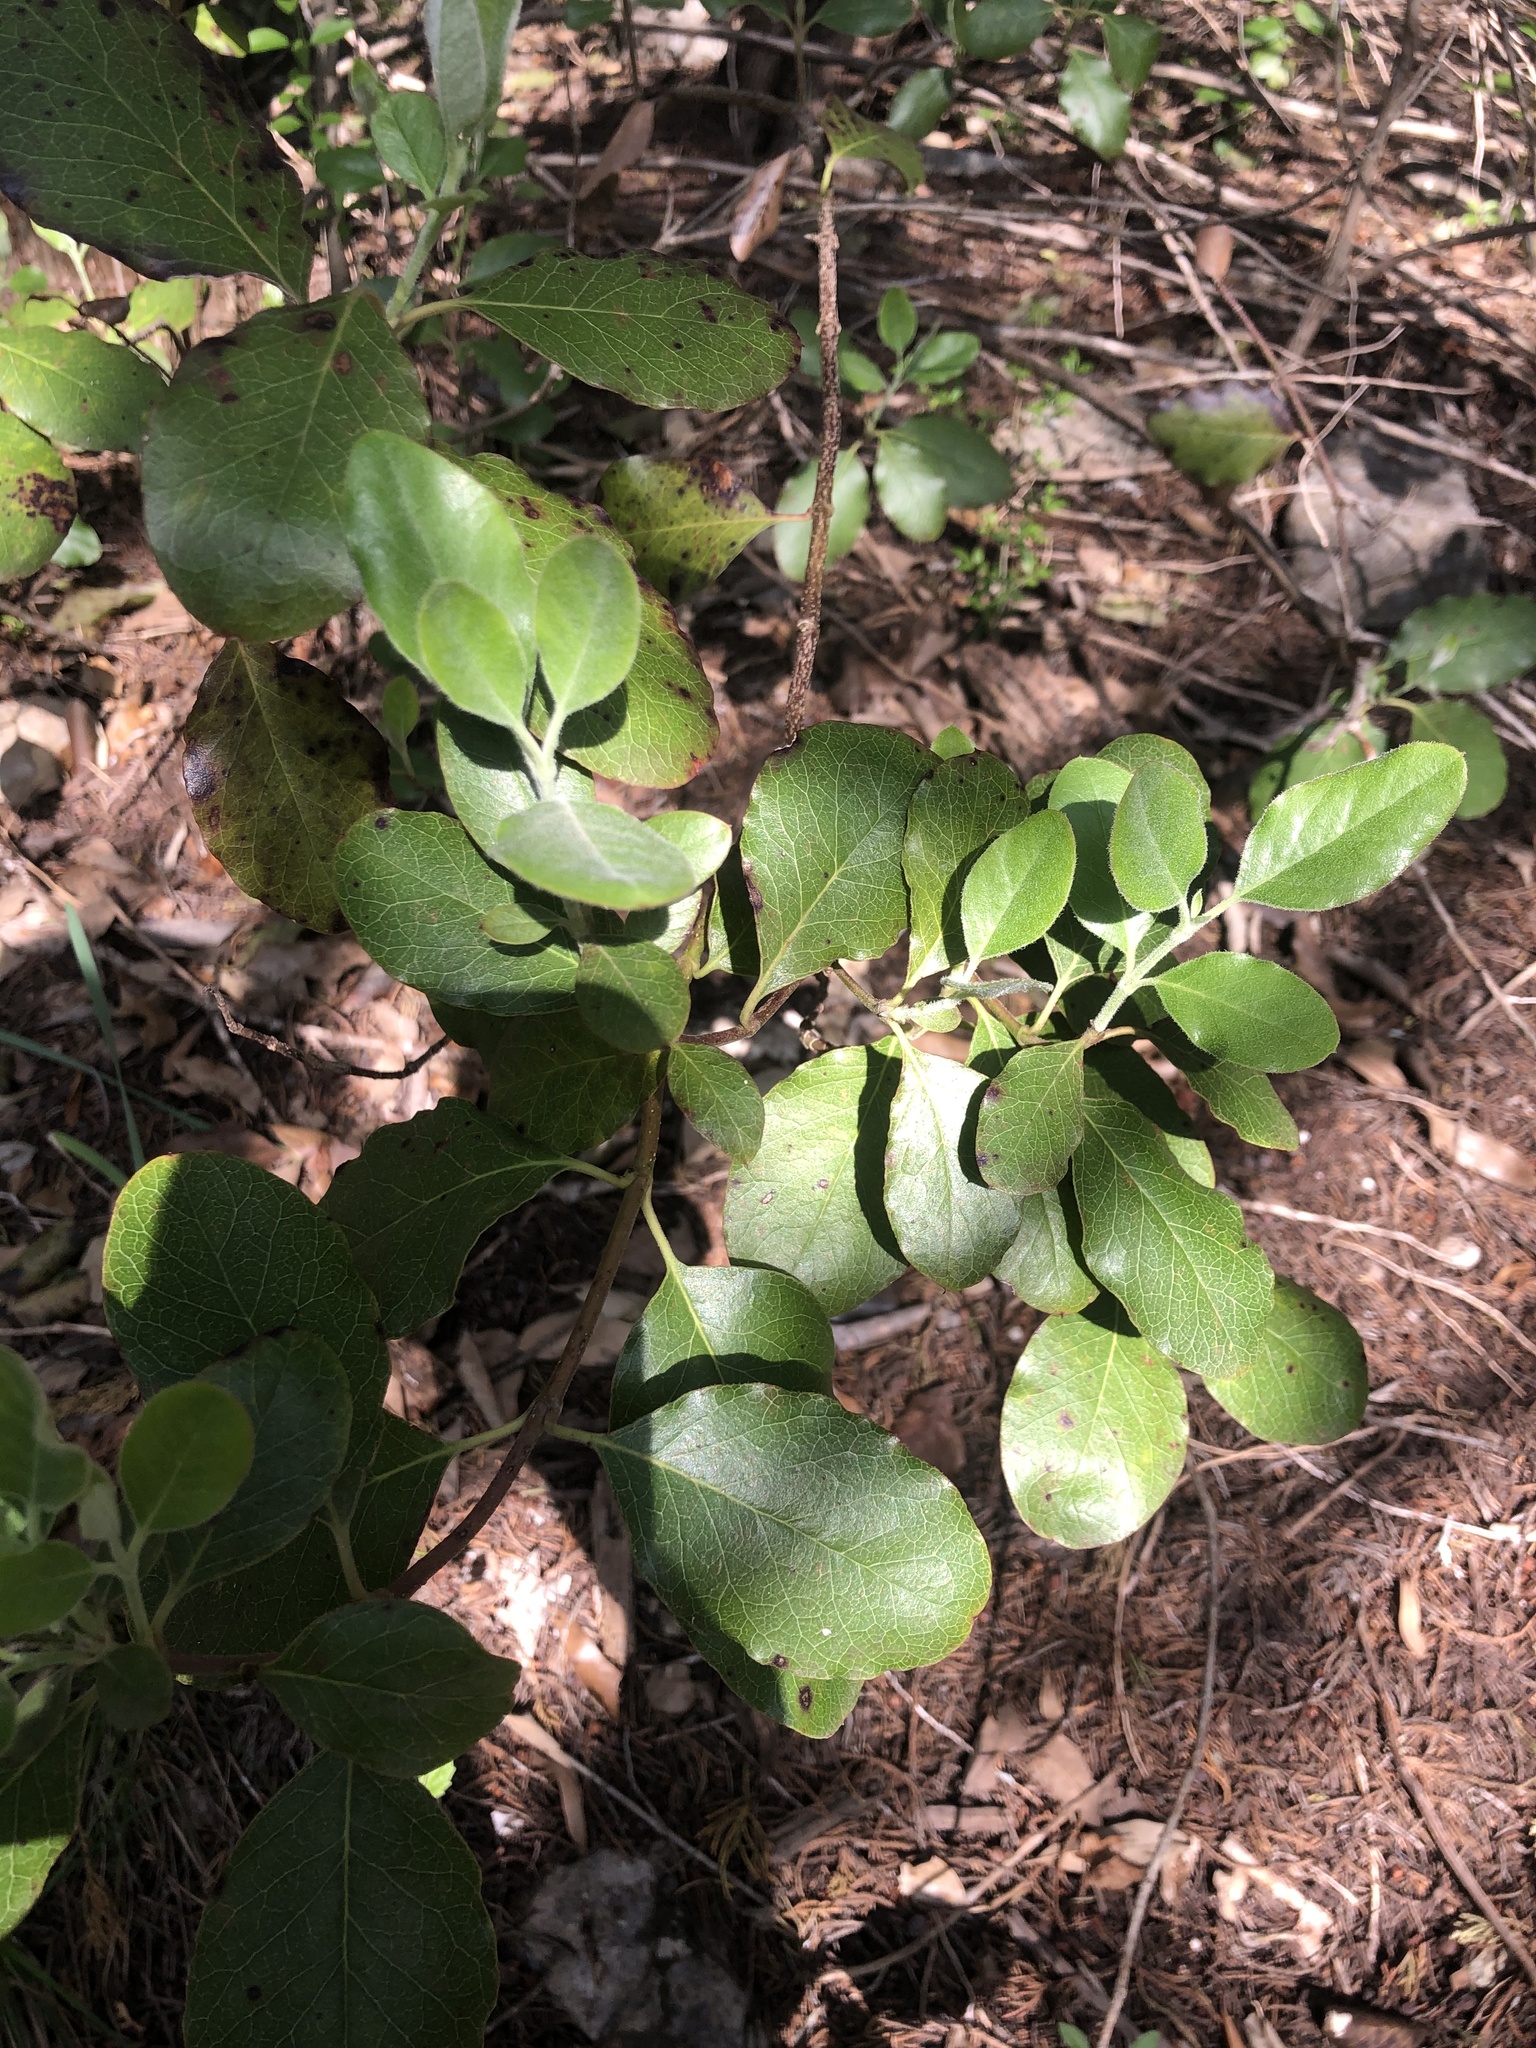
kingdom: Plantae
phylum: Tracheophyta
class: Magnoliopsida
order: Garryales
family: Garryaceae
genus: Garrya
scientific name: Garrya lindheimeri
